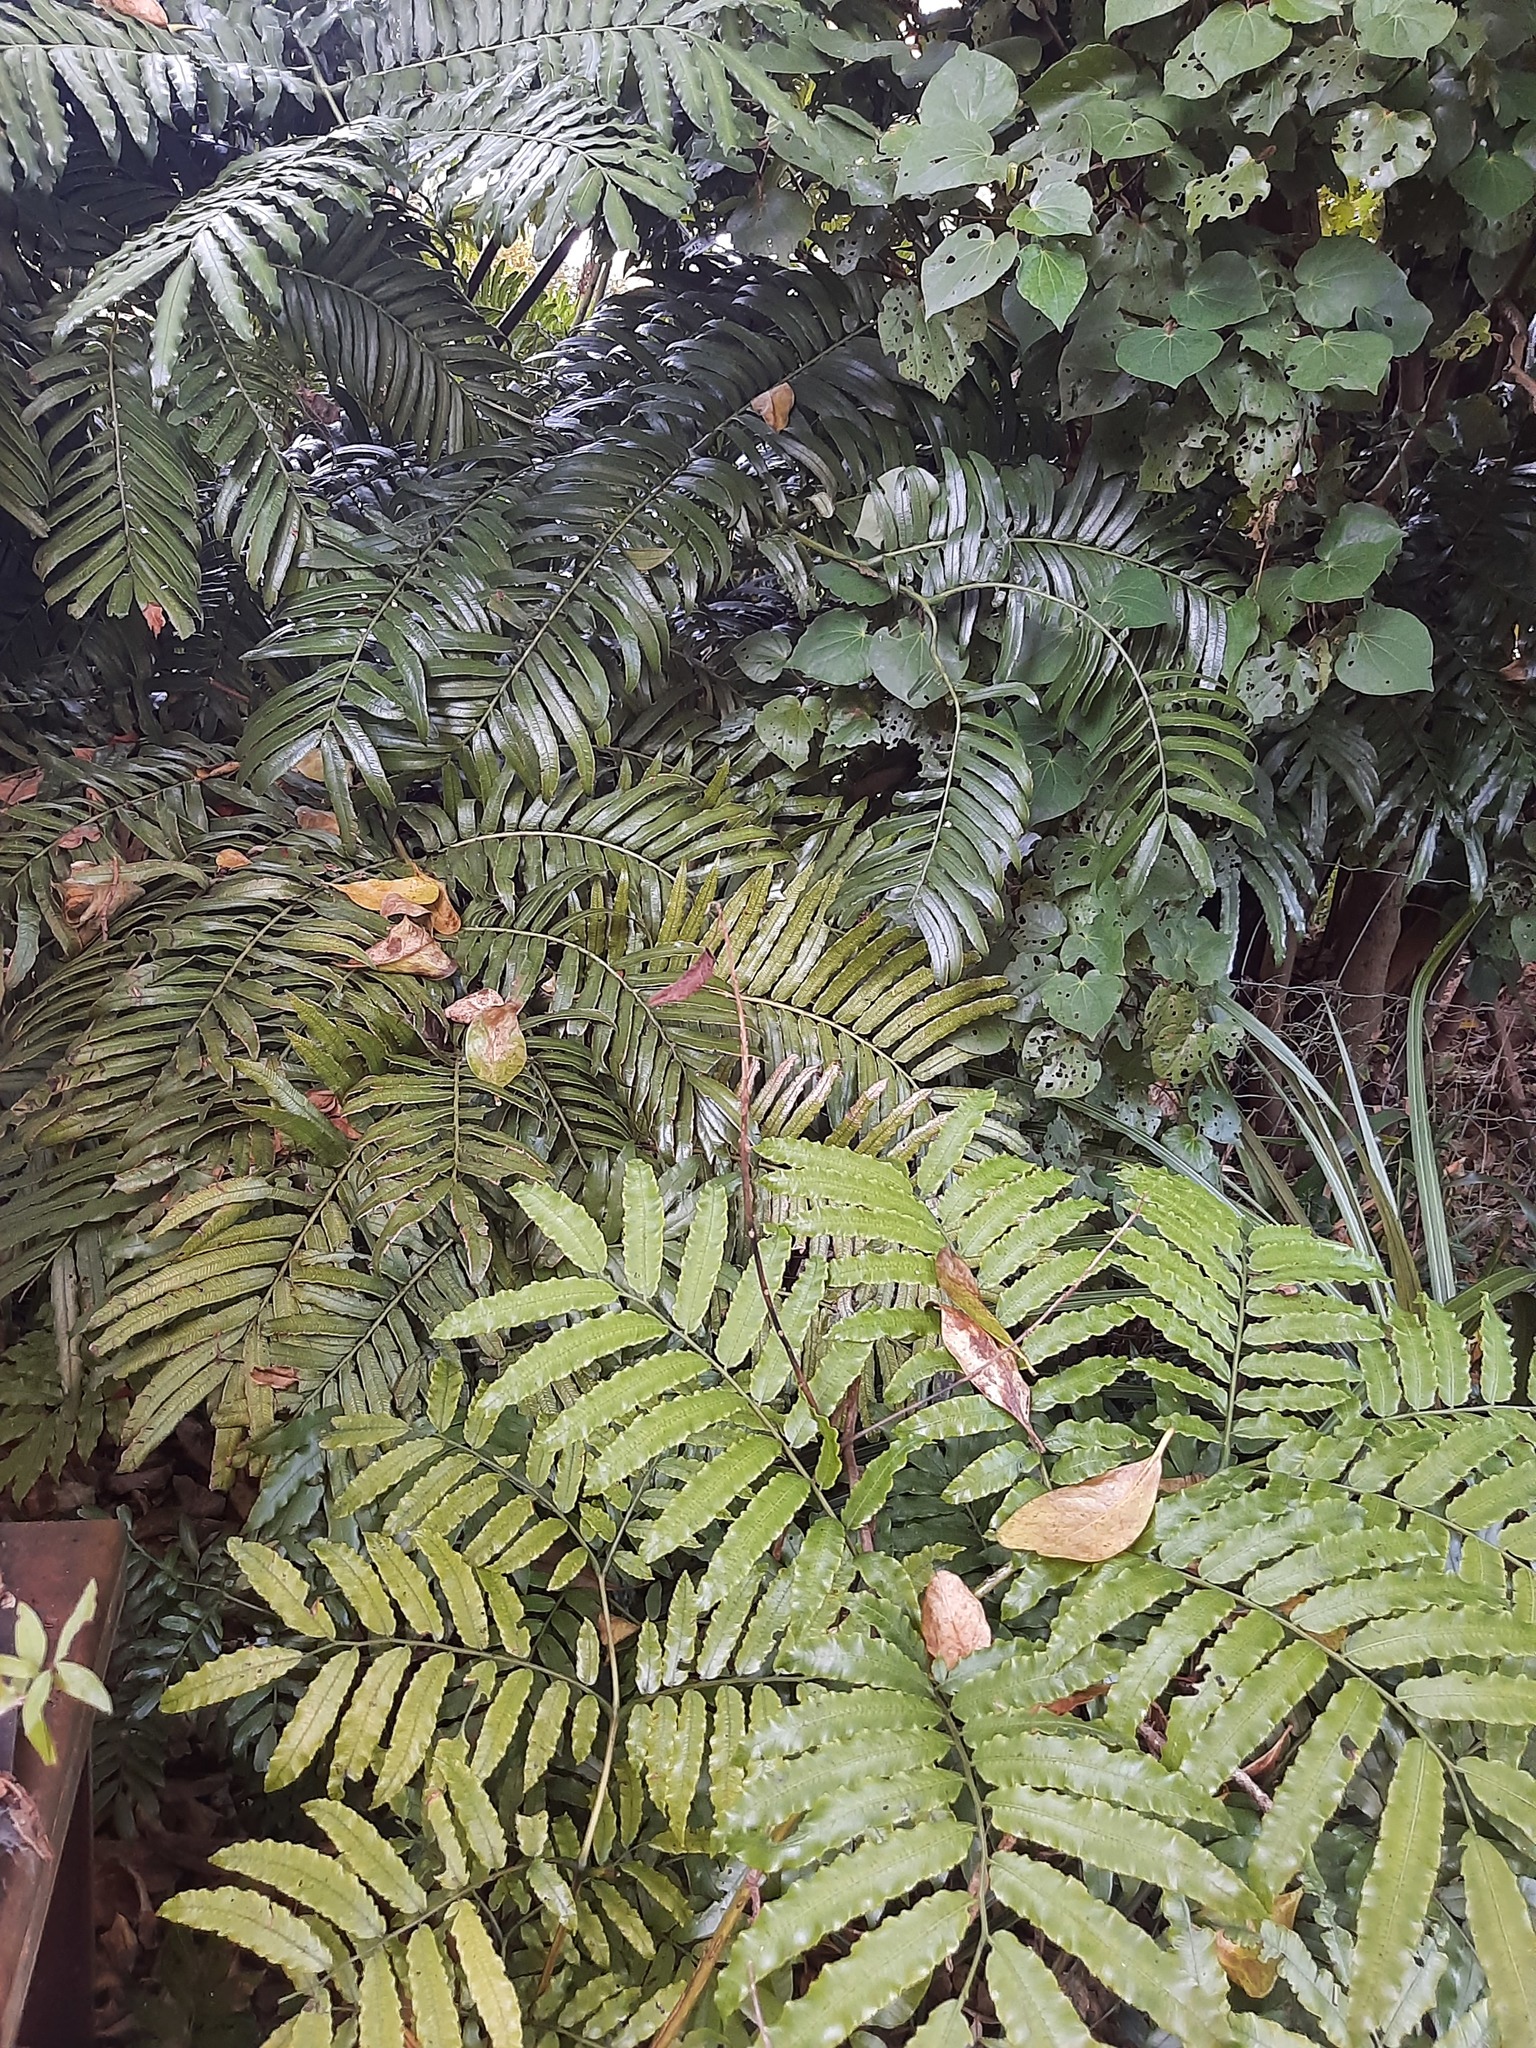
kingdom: Plantae
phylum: Tracheophyta
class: Polypodiopsida
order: Marattiales
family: Marattiaceae
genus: Ptisana
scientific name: Ptisana salicina
